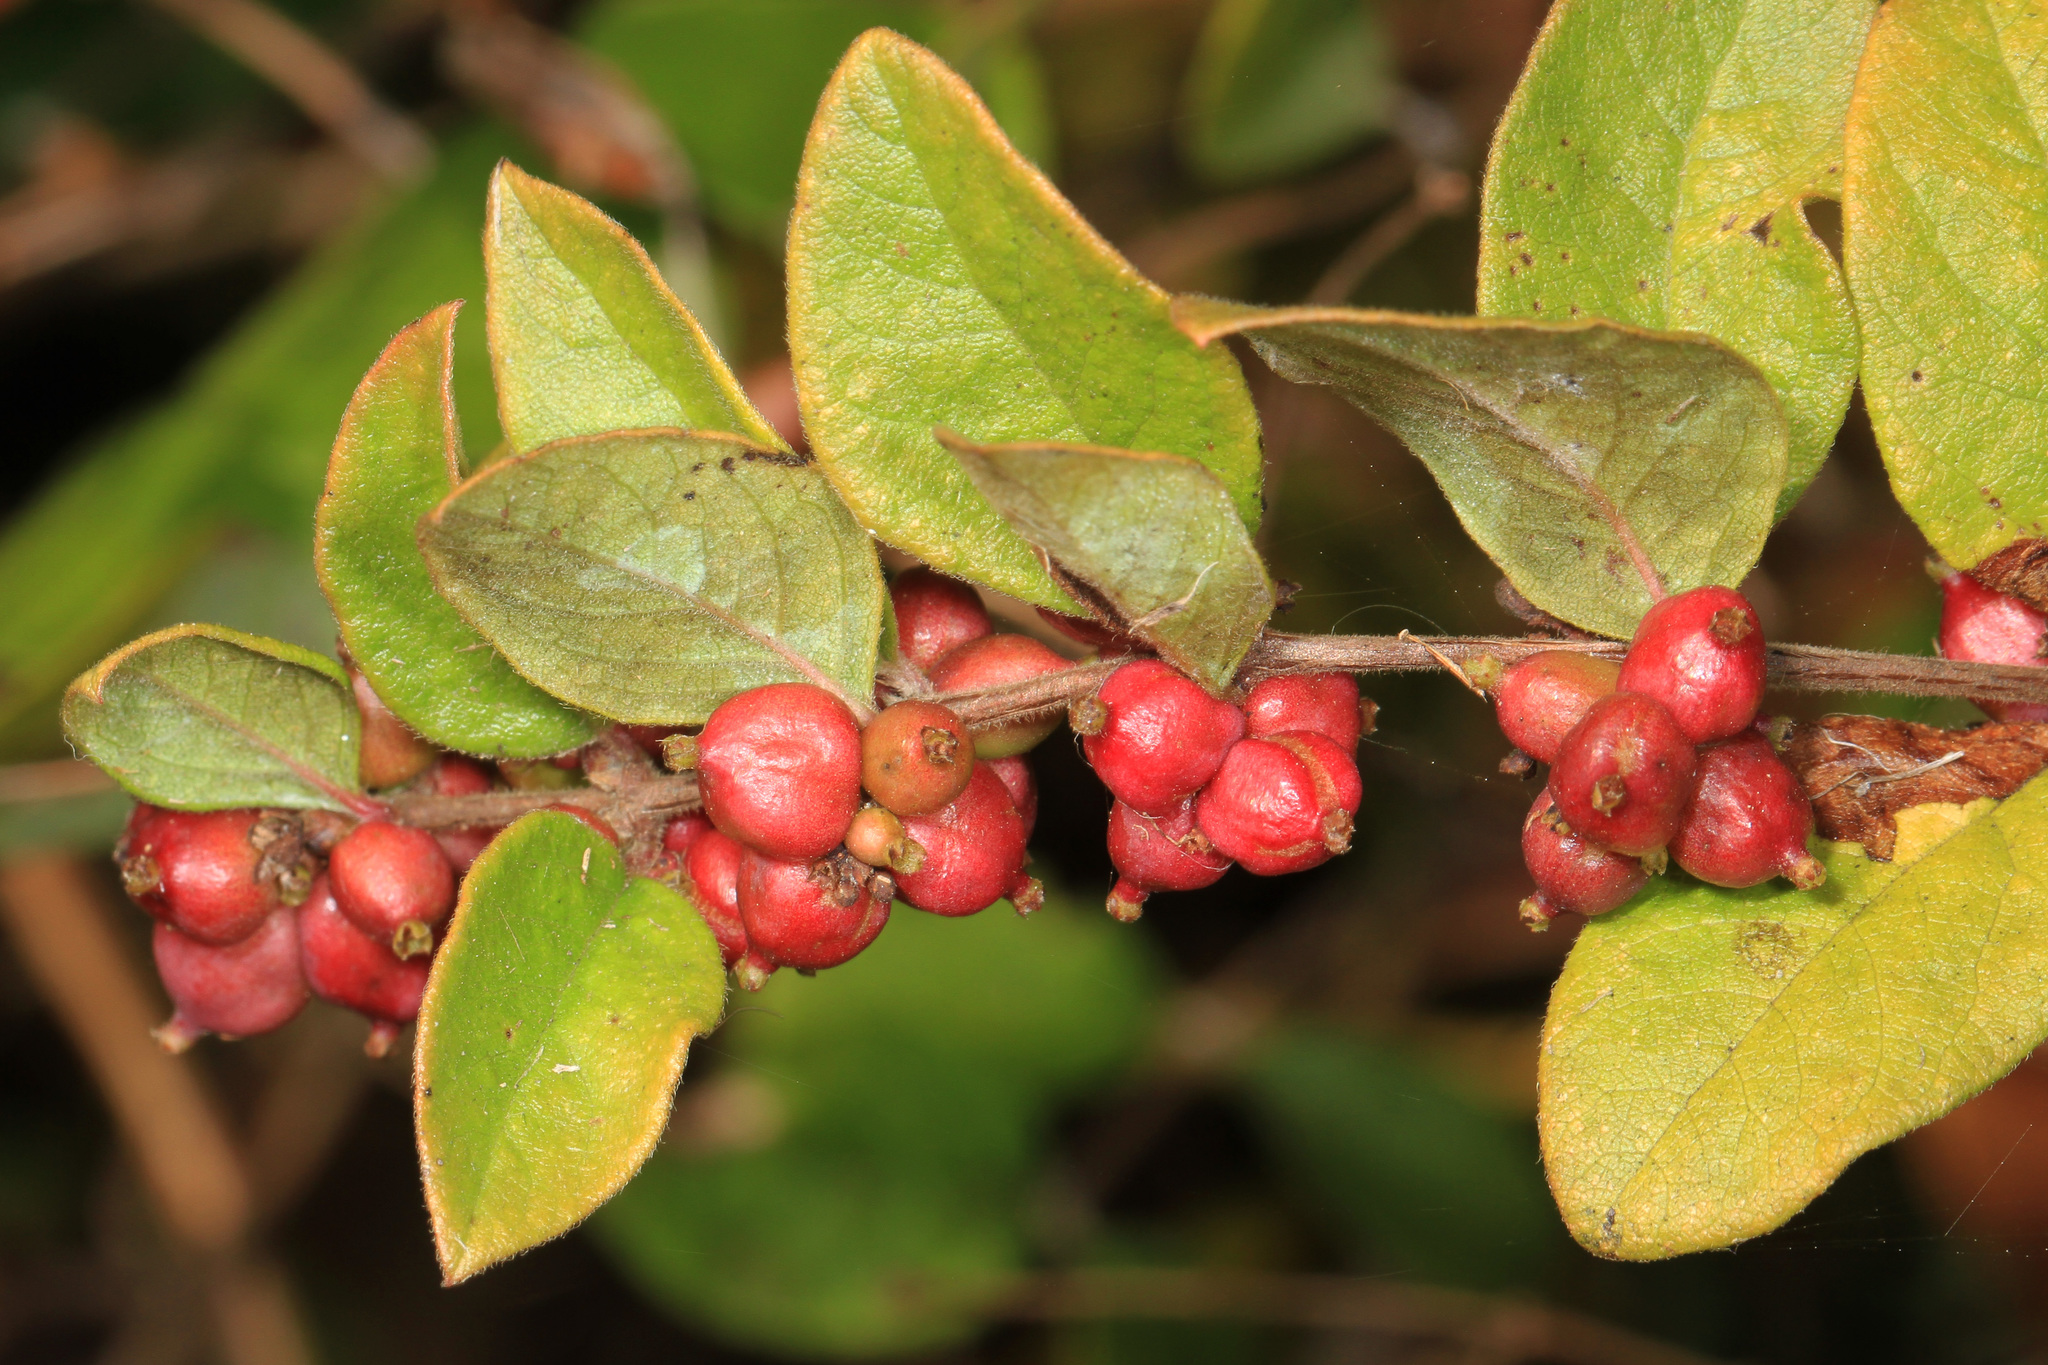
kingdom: Plantae
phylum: Tracheophyta
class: Magnoliopsida
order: Dipsacales
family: Caprifoliaceae
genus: Symphoricarpos
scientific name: Symphoricarpos orbiculatus
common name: Coralberry
